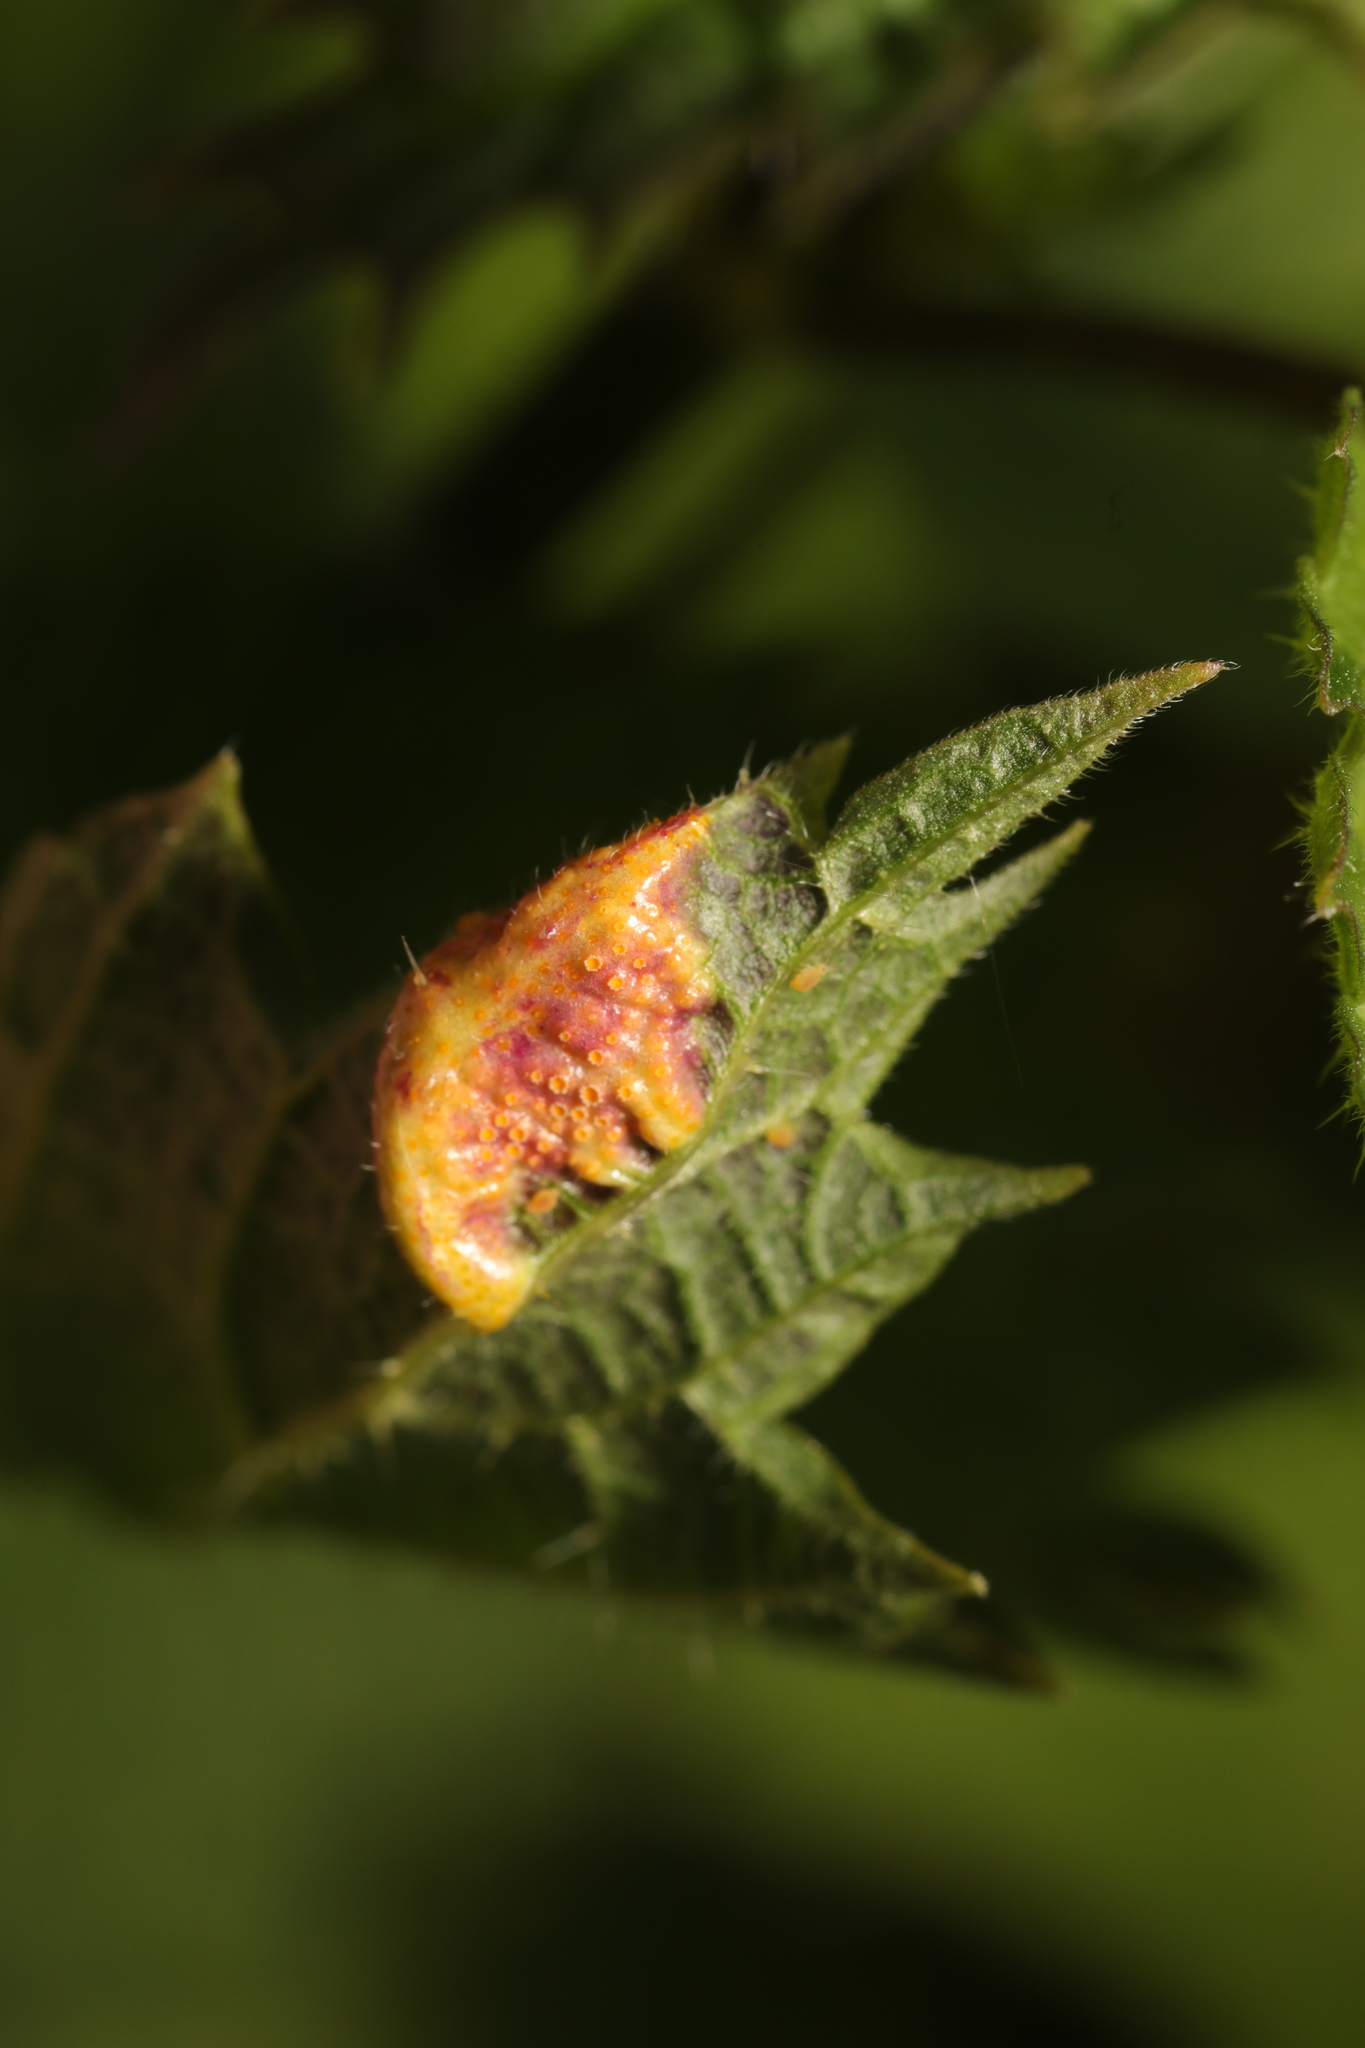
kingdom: Fungi
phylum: Basidiomycota
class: Pucciniomycetes
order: Pucciniales
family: Pucciniaceae
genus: Puccinia
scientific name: Puccinia urticata
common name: Nettle clustercup rust fungus
